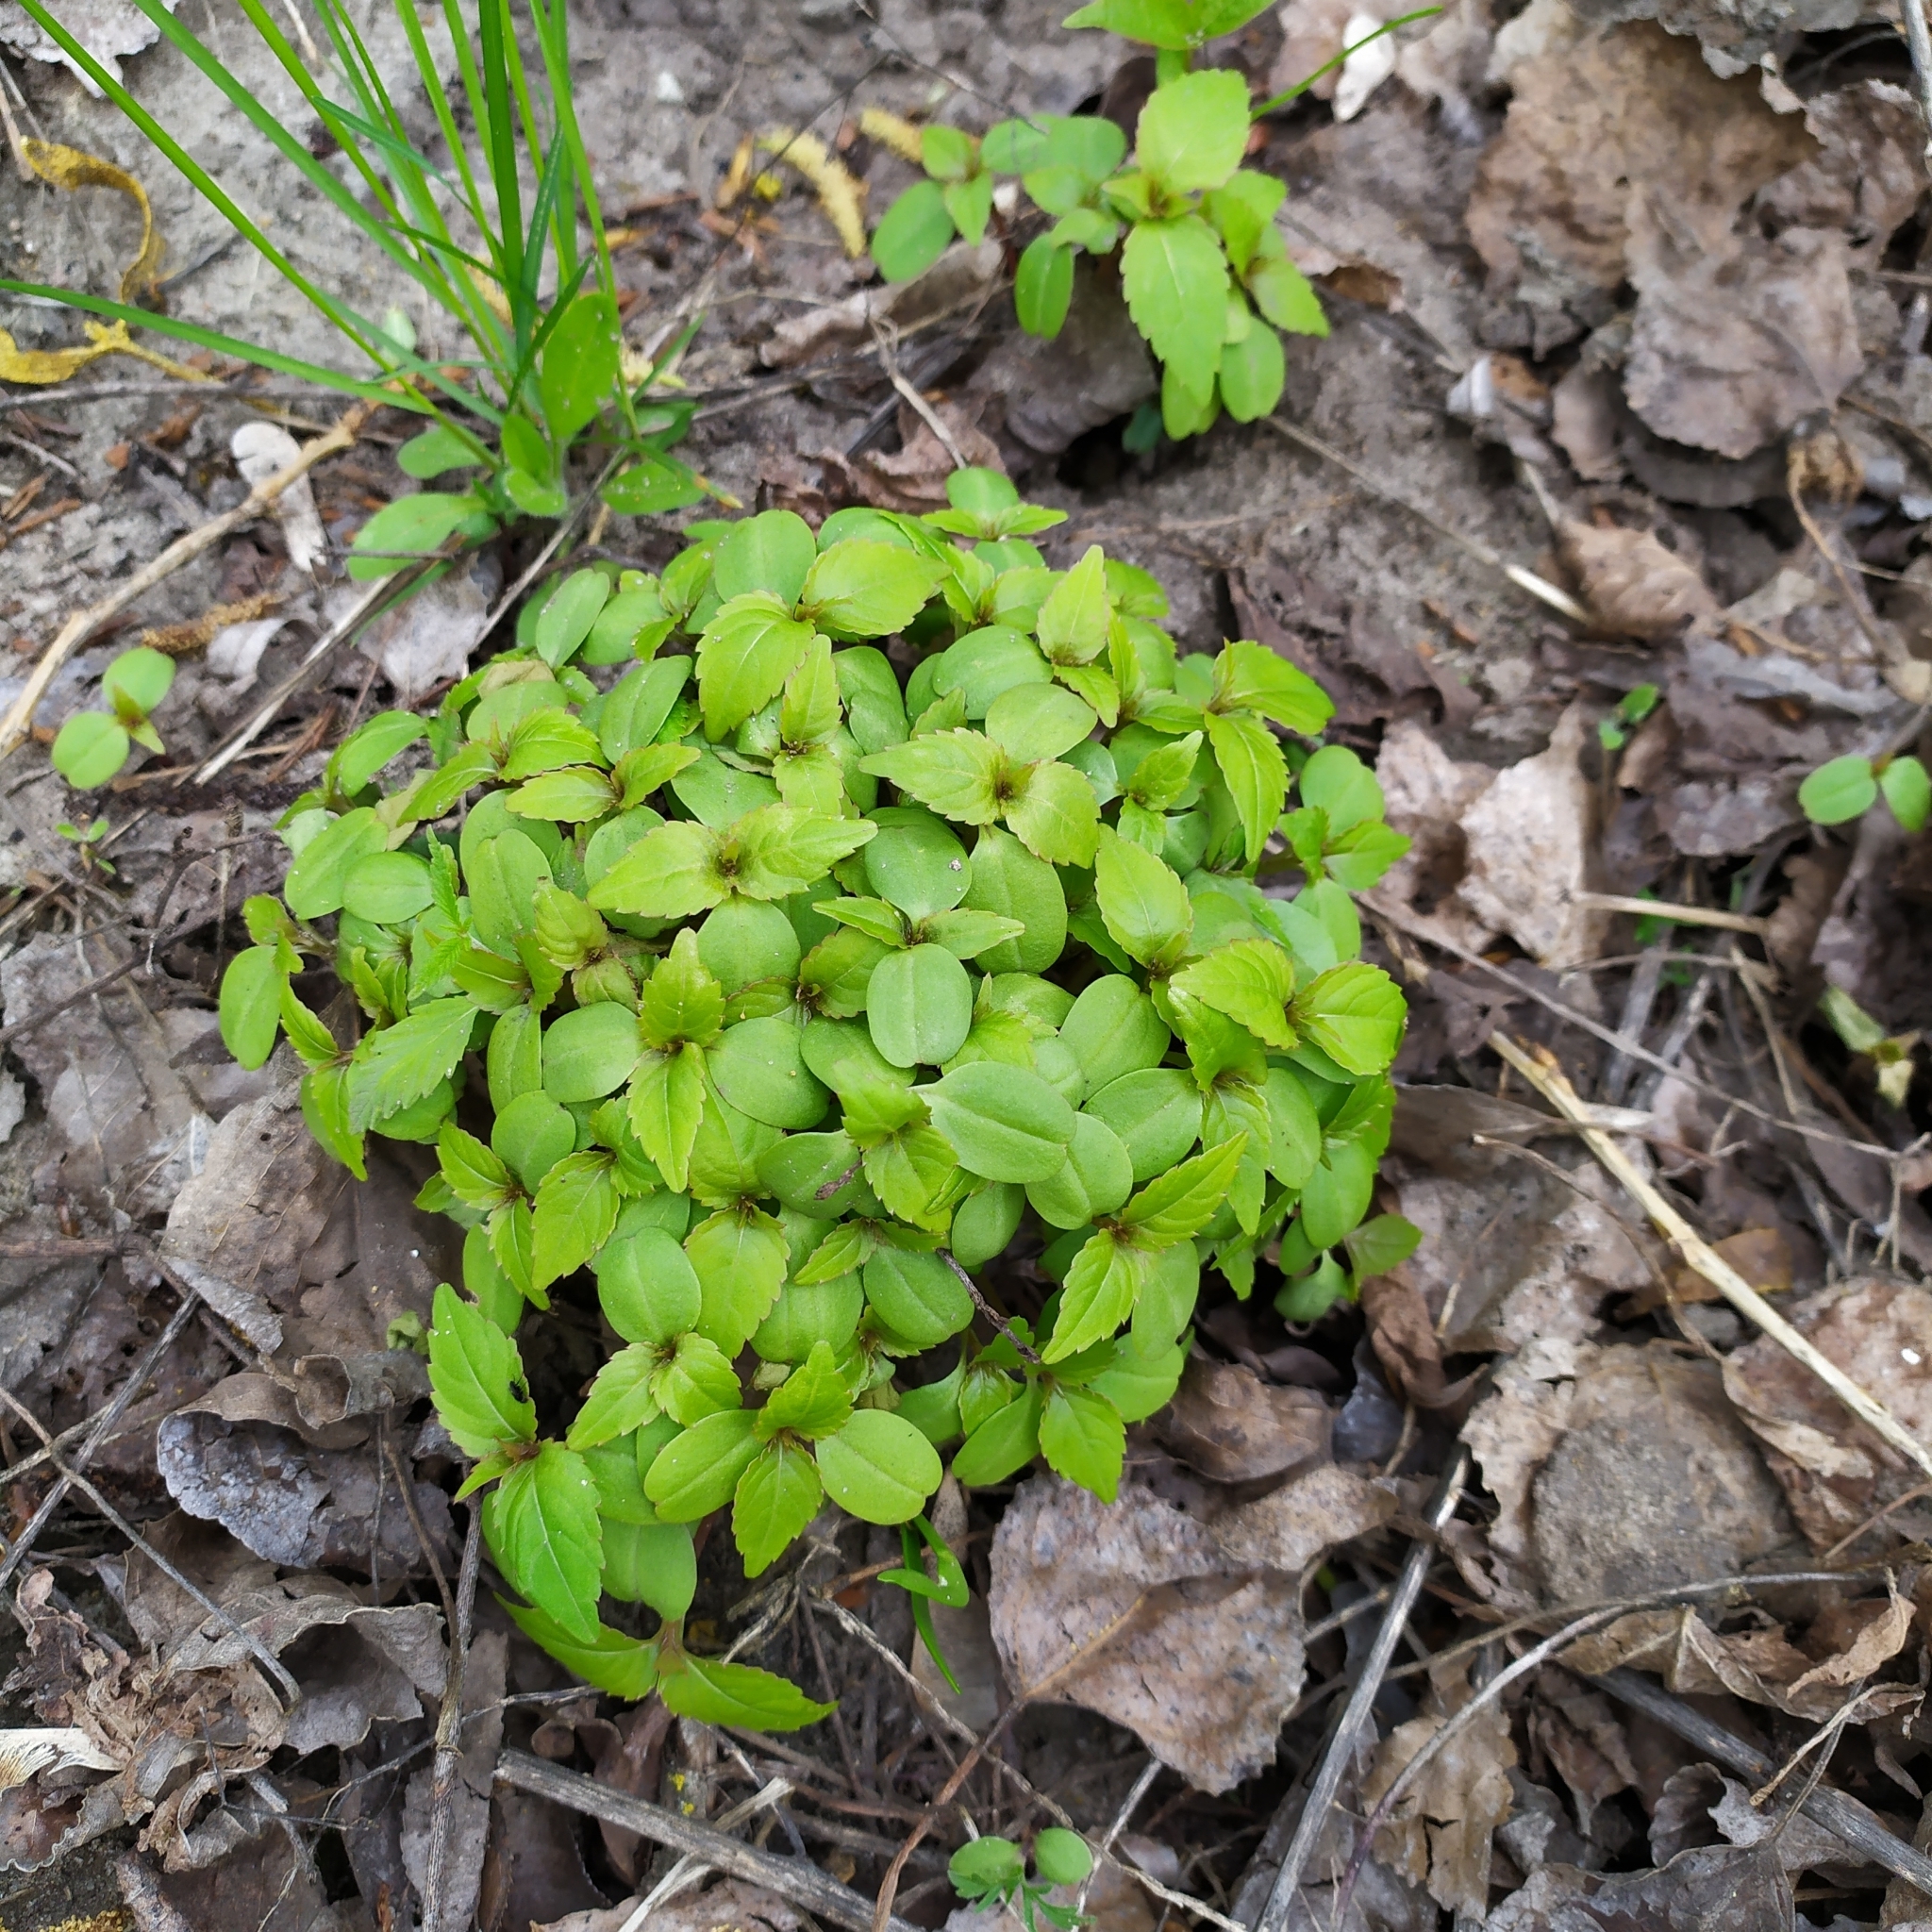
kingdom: Plantae
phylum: Tracheophyta
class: Magnoliopsida
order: Ericales
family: Balsaminaceae
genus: Impatiens
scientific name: Impatiens parviflora
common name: Small balsam
